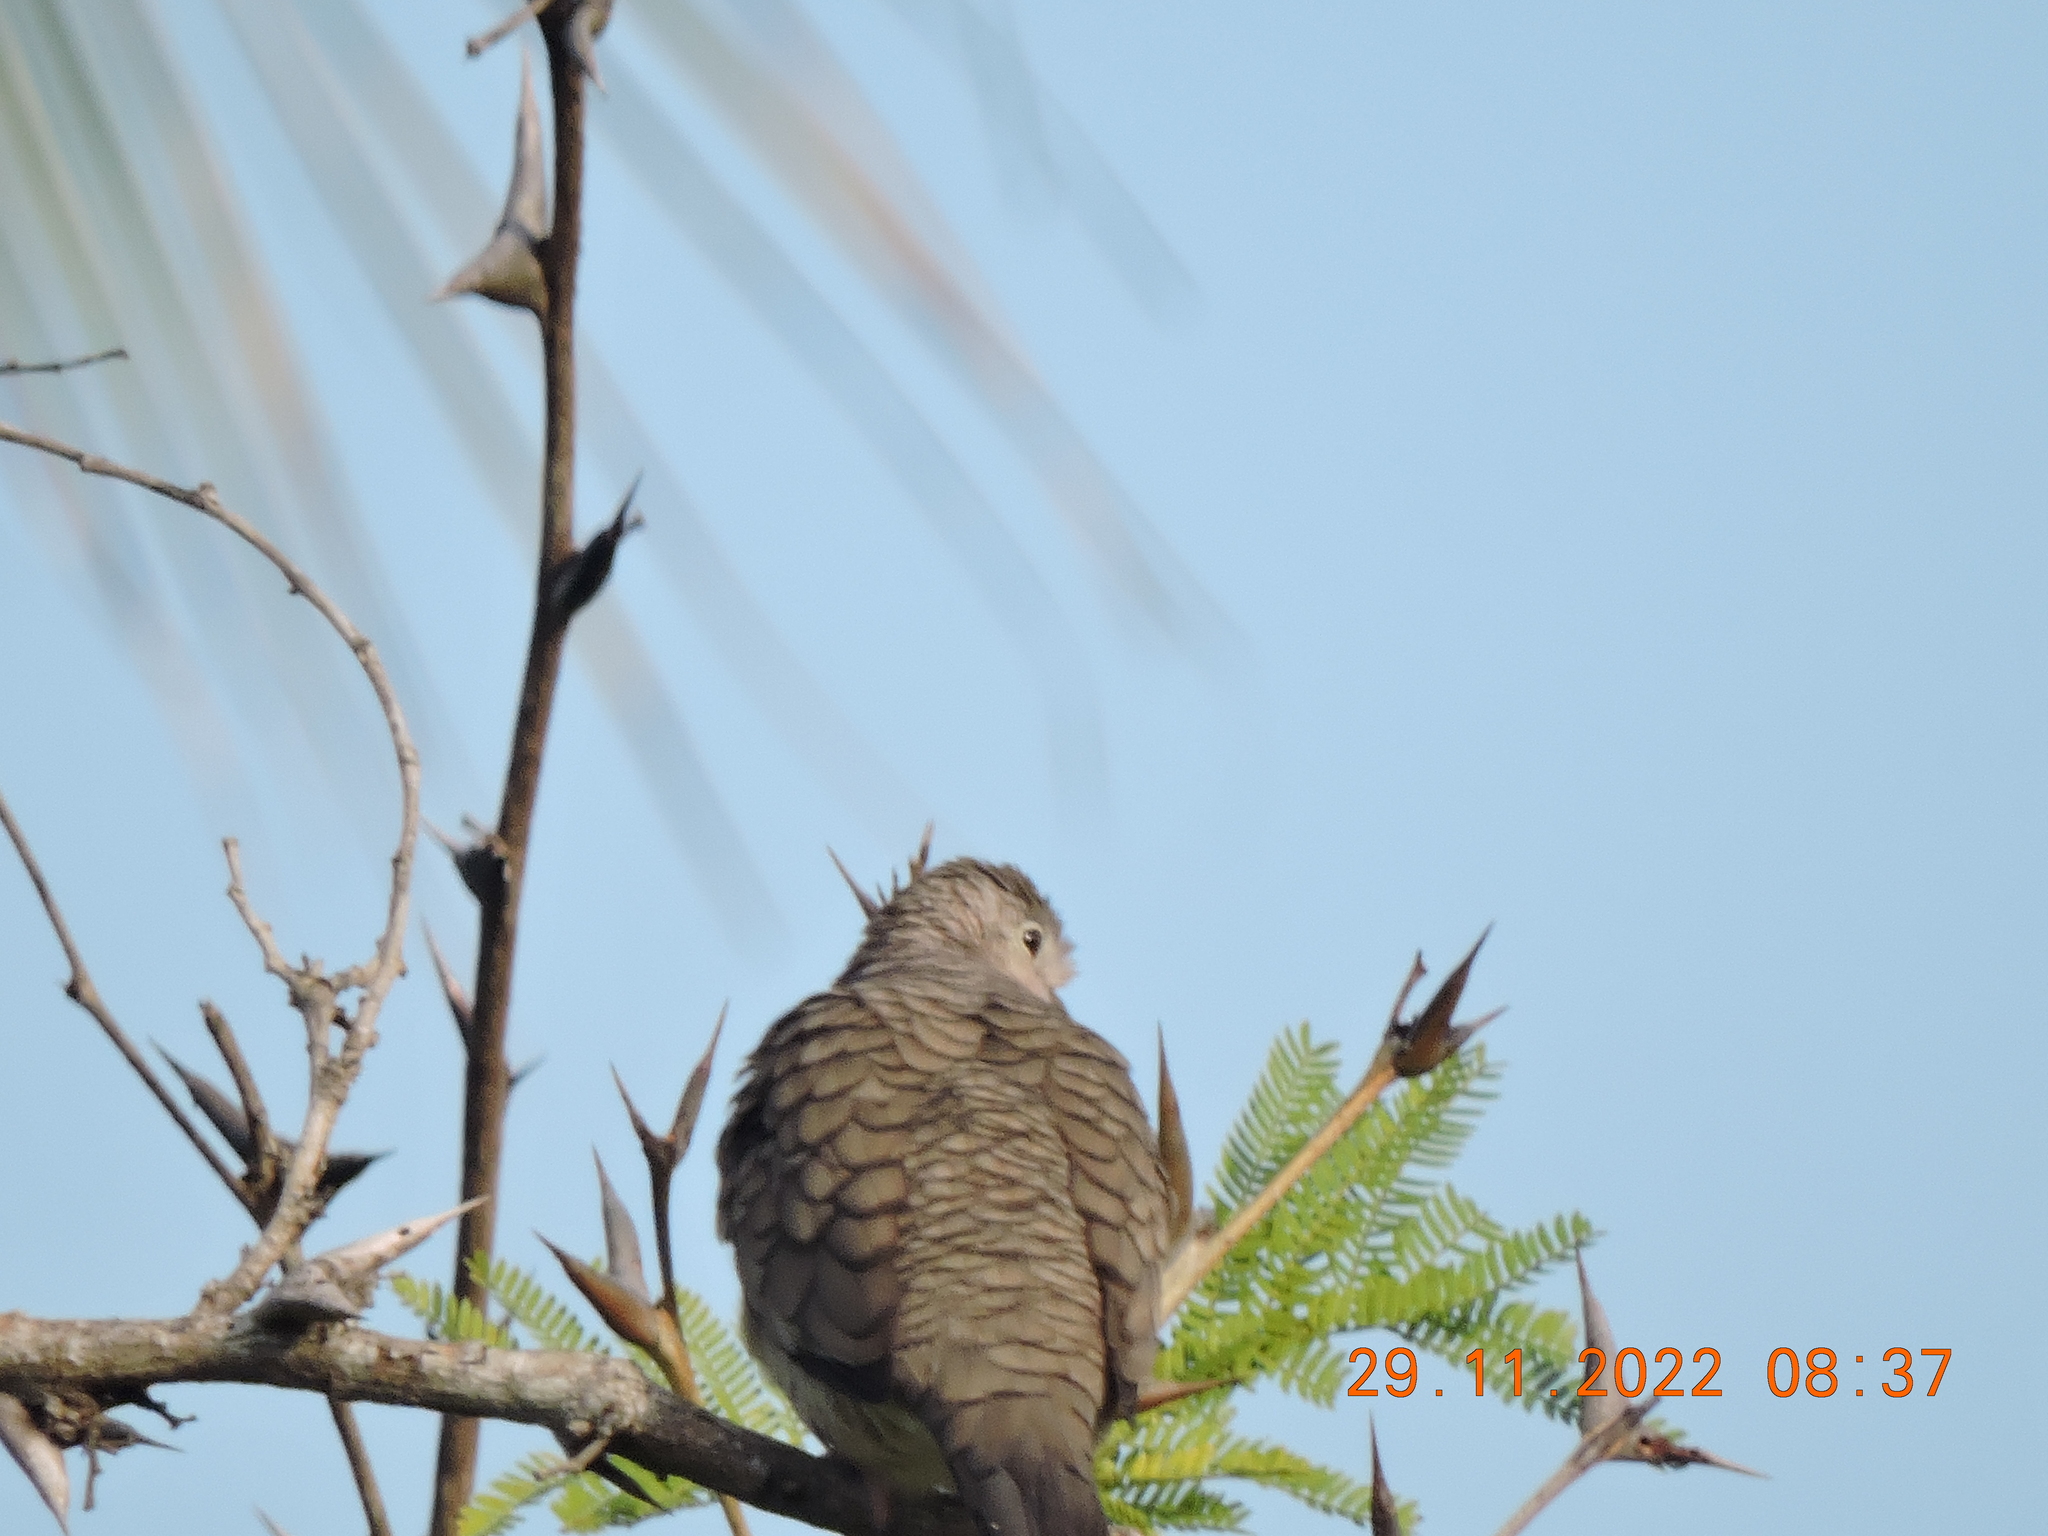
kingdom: Animalia
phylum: Chordata
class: Aves
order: Columbiformes
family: Columbidae
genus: Columbina
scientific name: Columbina inca
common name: Inca dove
